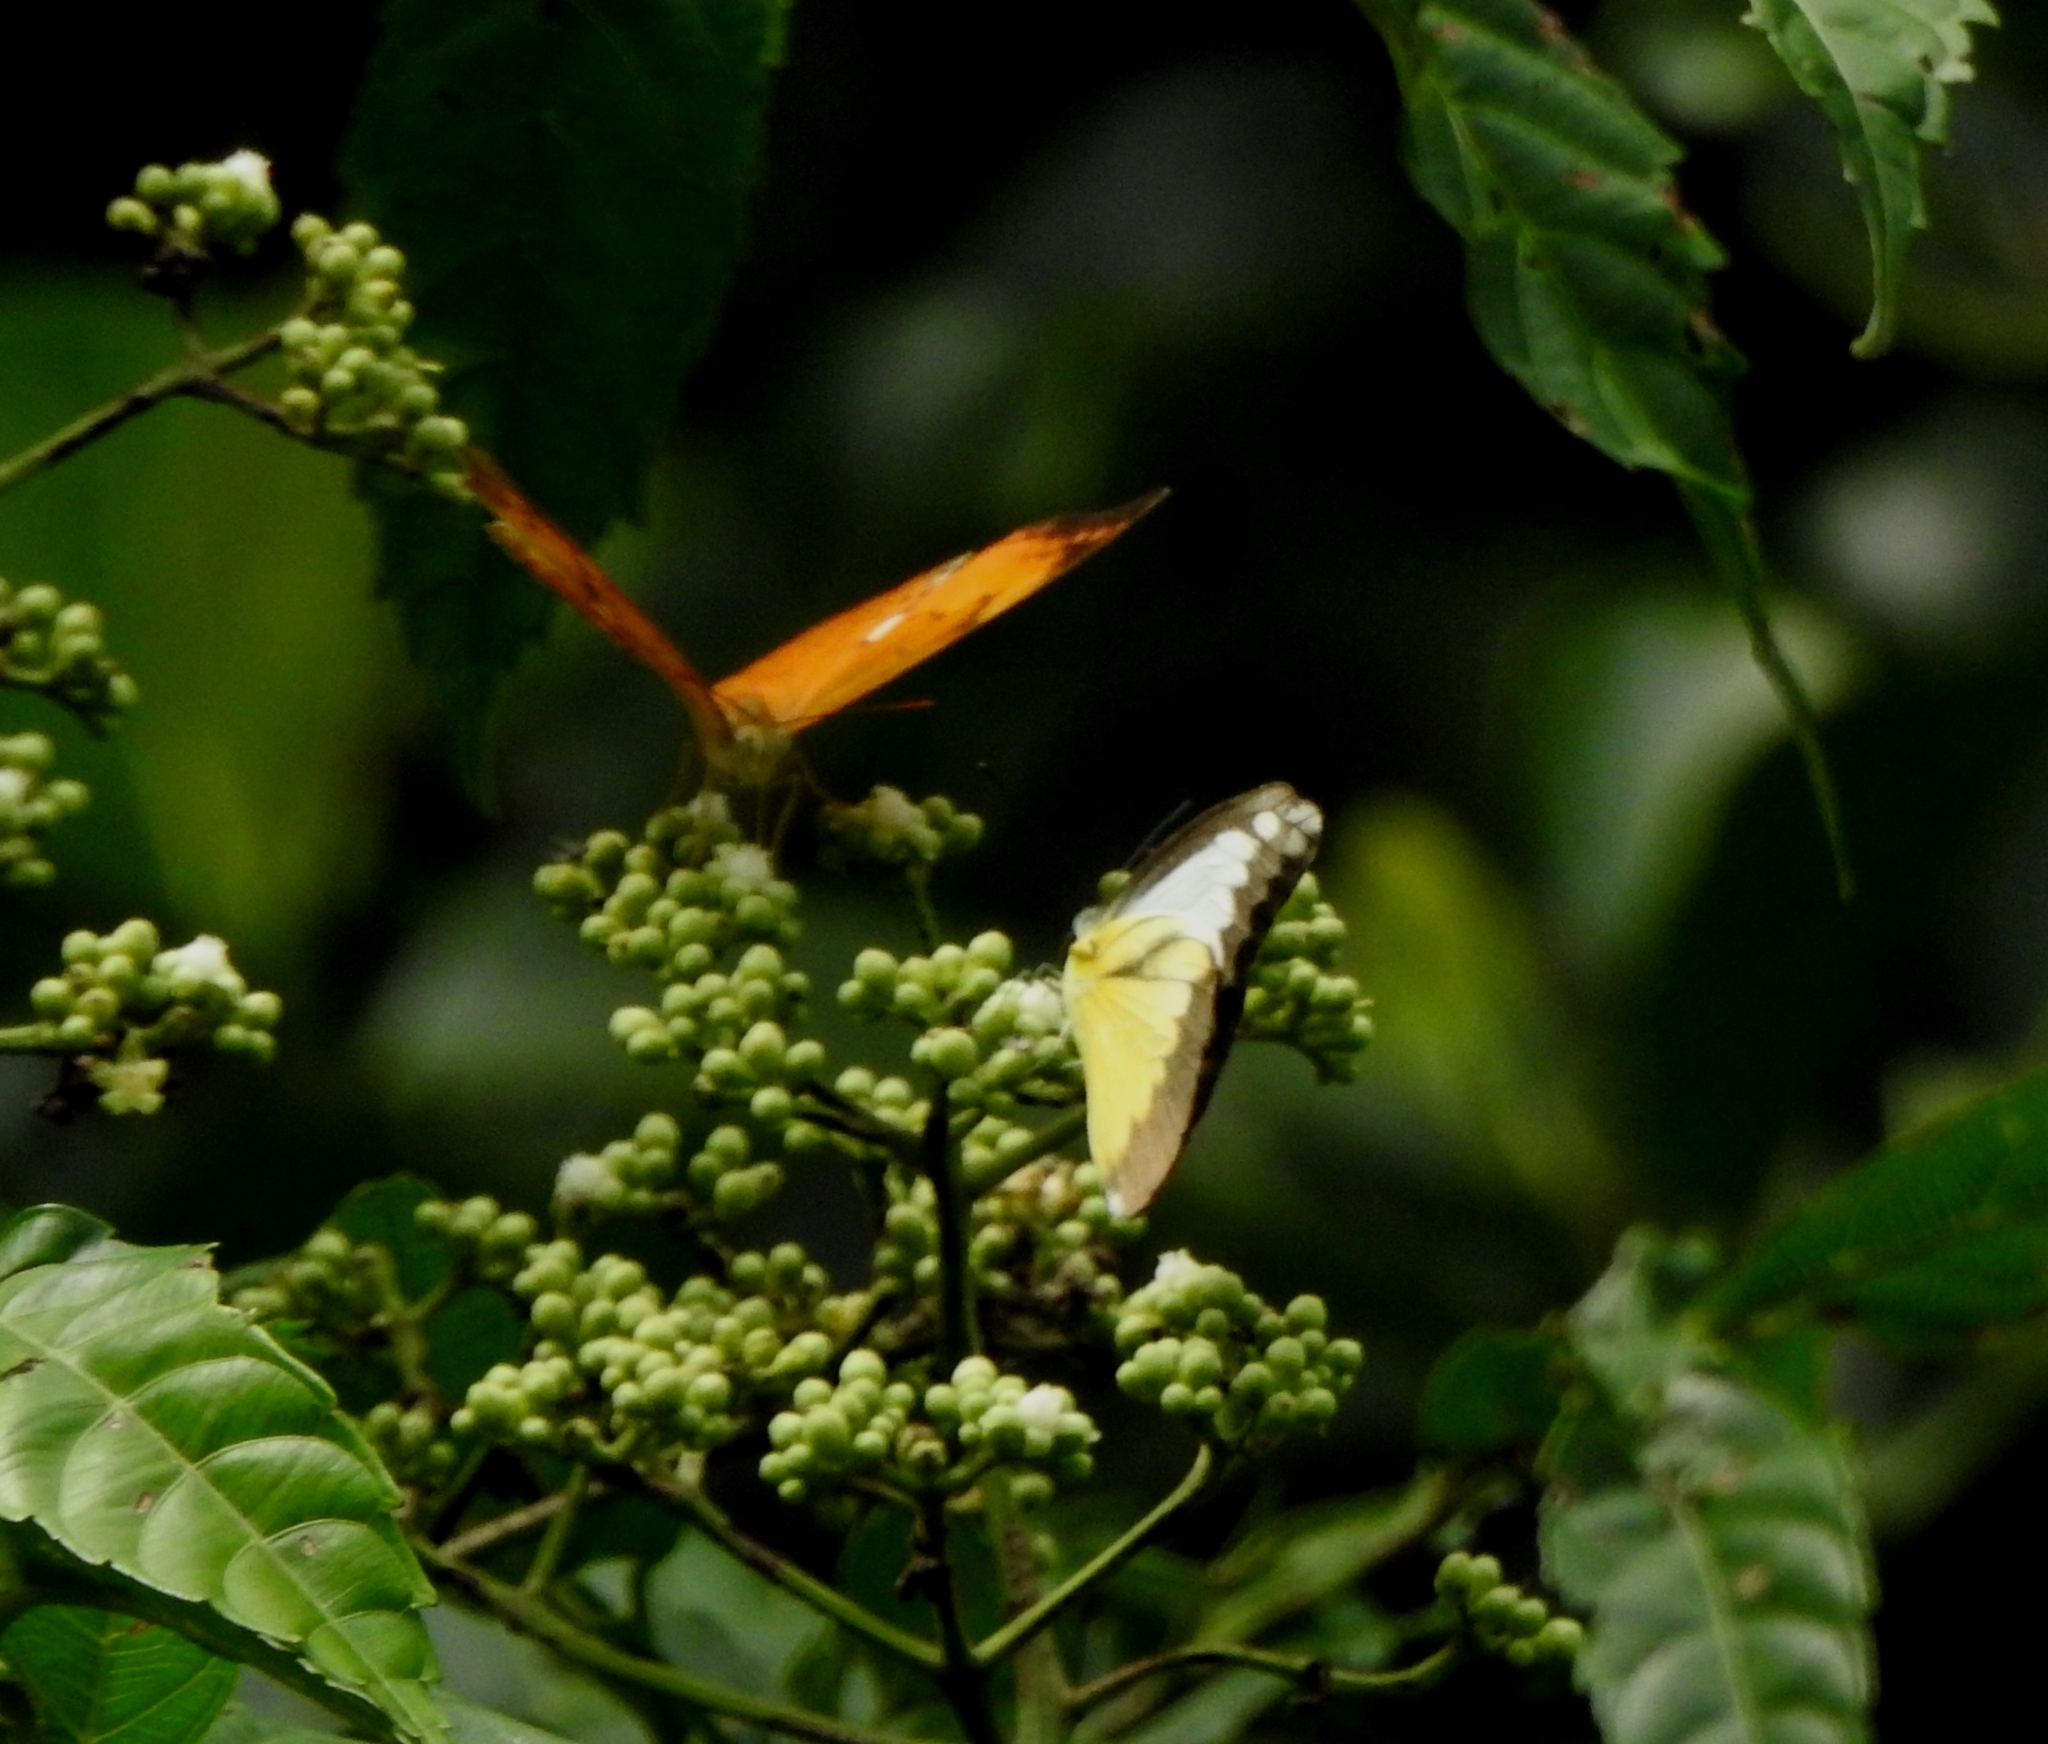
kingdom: Animalia
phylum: Arthropoda
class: Insecta
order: Lepidoptera
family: Pieridae
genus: Appias
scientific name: Appias lyncida
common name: Chocolate albatross
